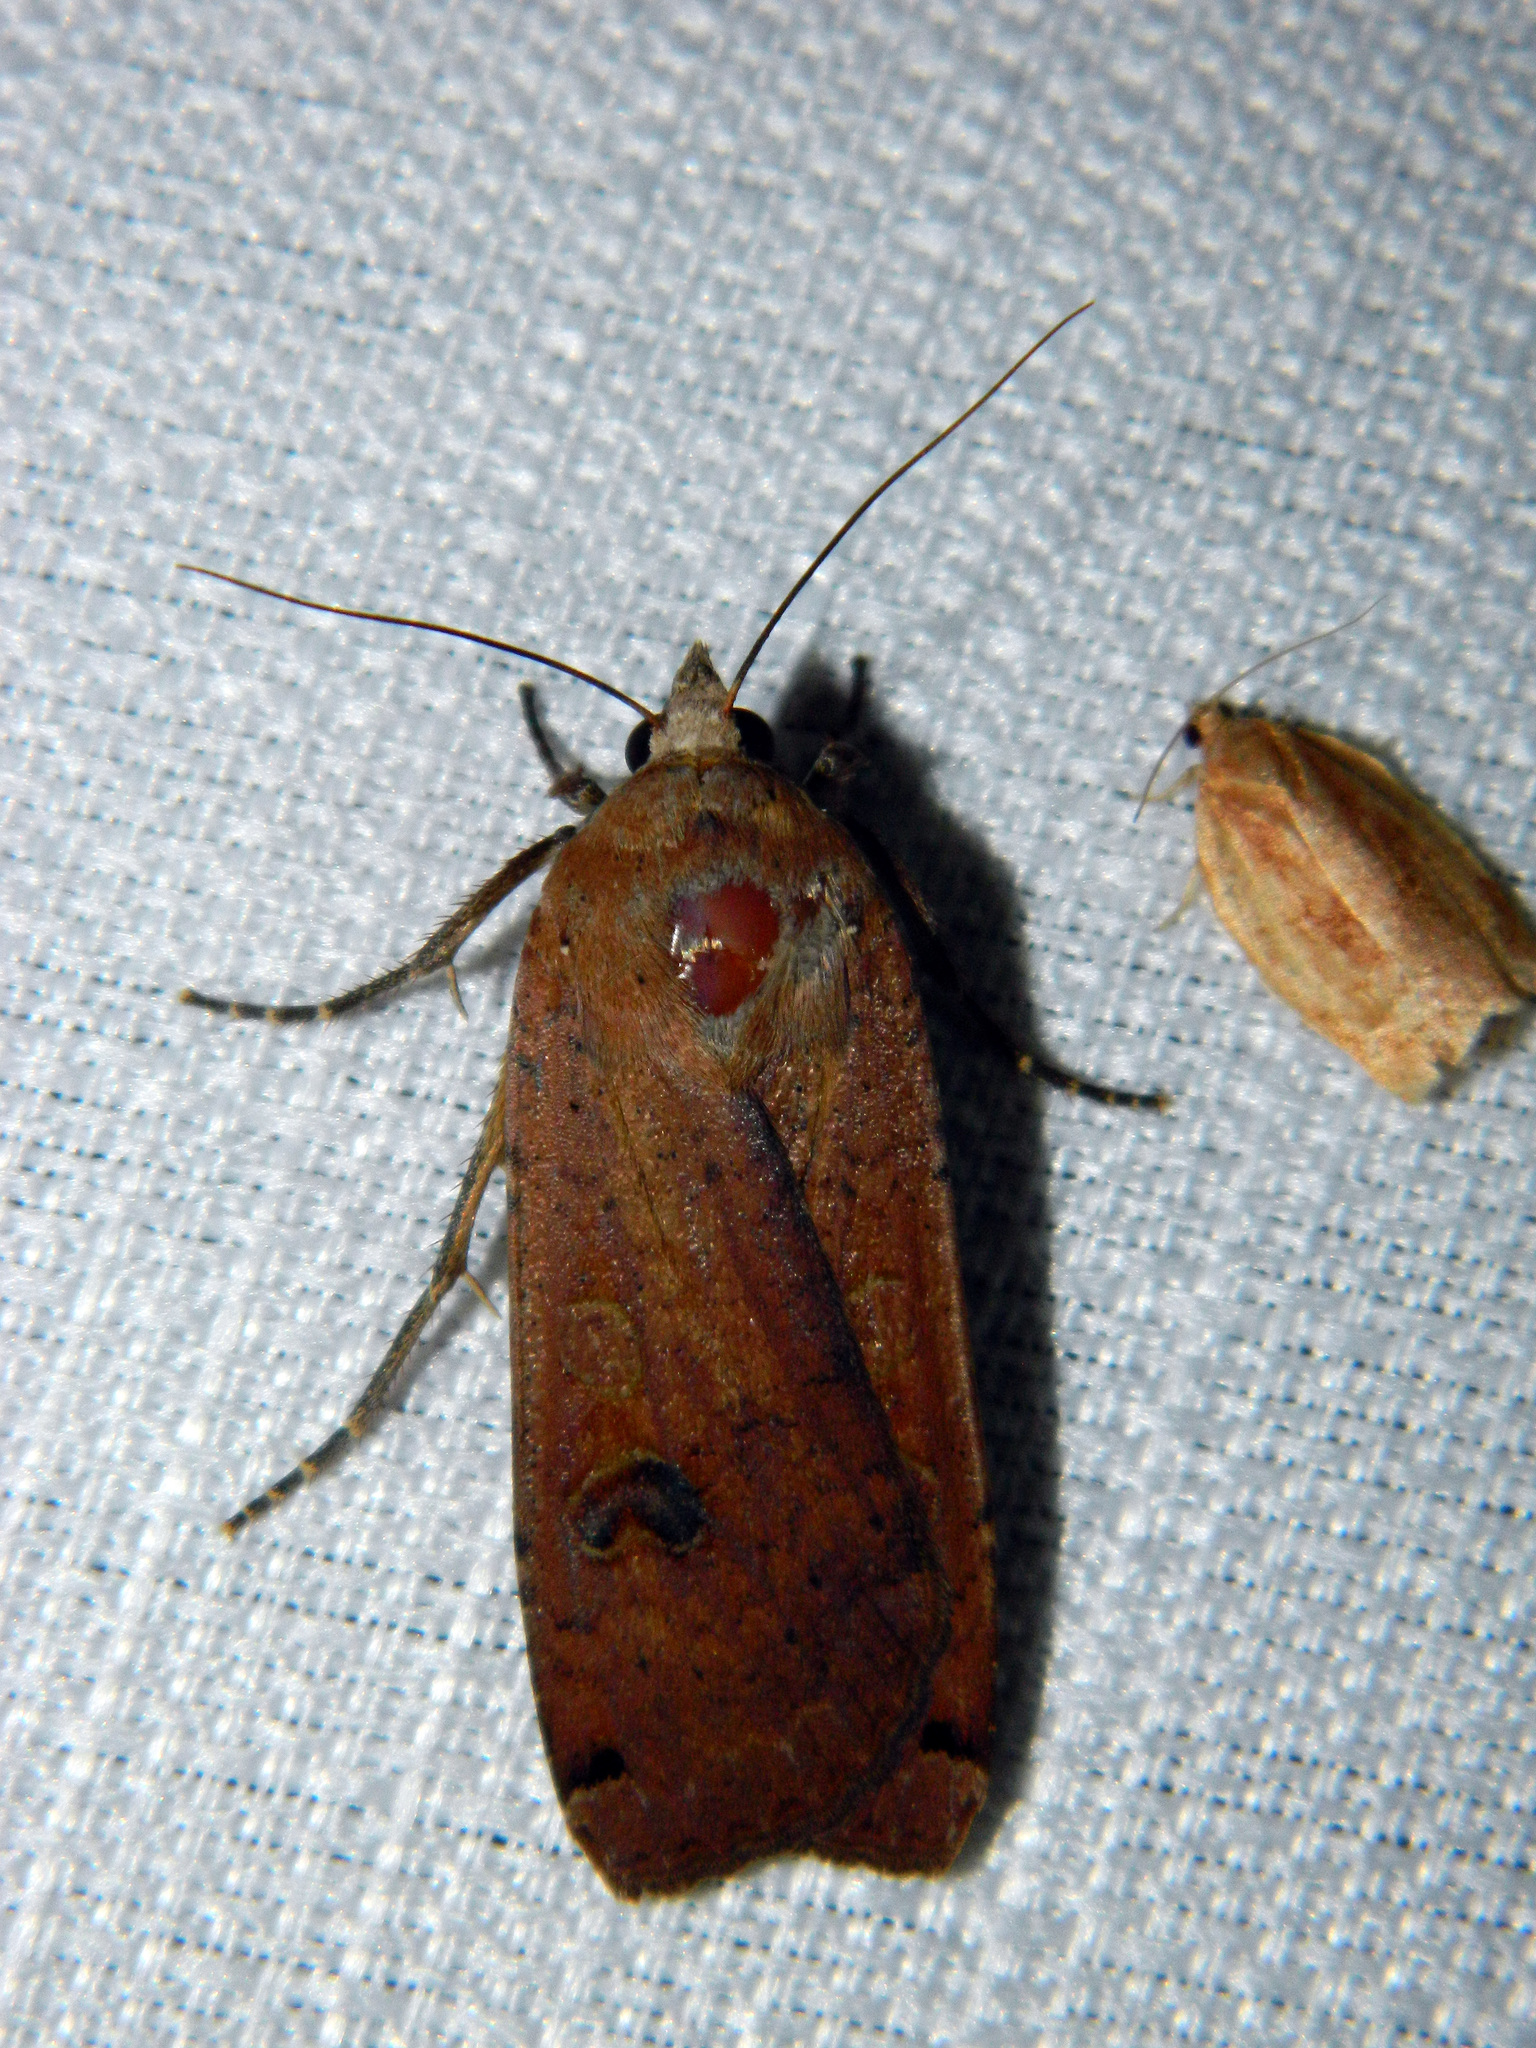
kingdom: Animalia
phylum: Arthropoda
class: Insecta
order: Lepidoptera
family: Noctuidae
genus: Noctua
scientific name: Noctua pronuba
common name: Large yellow underwing
